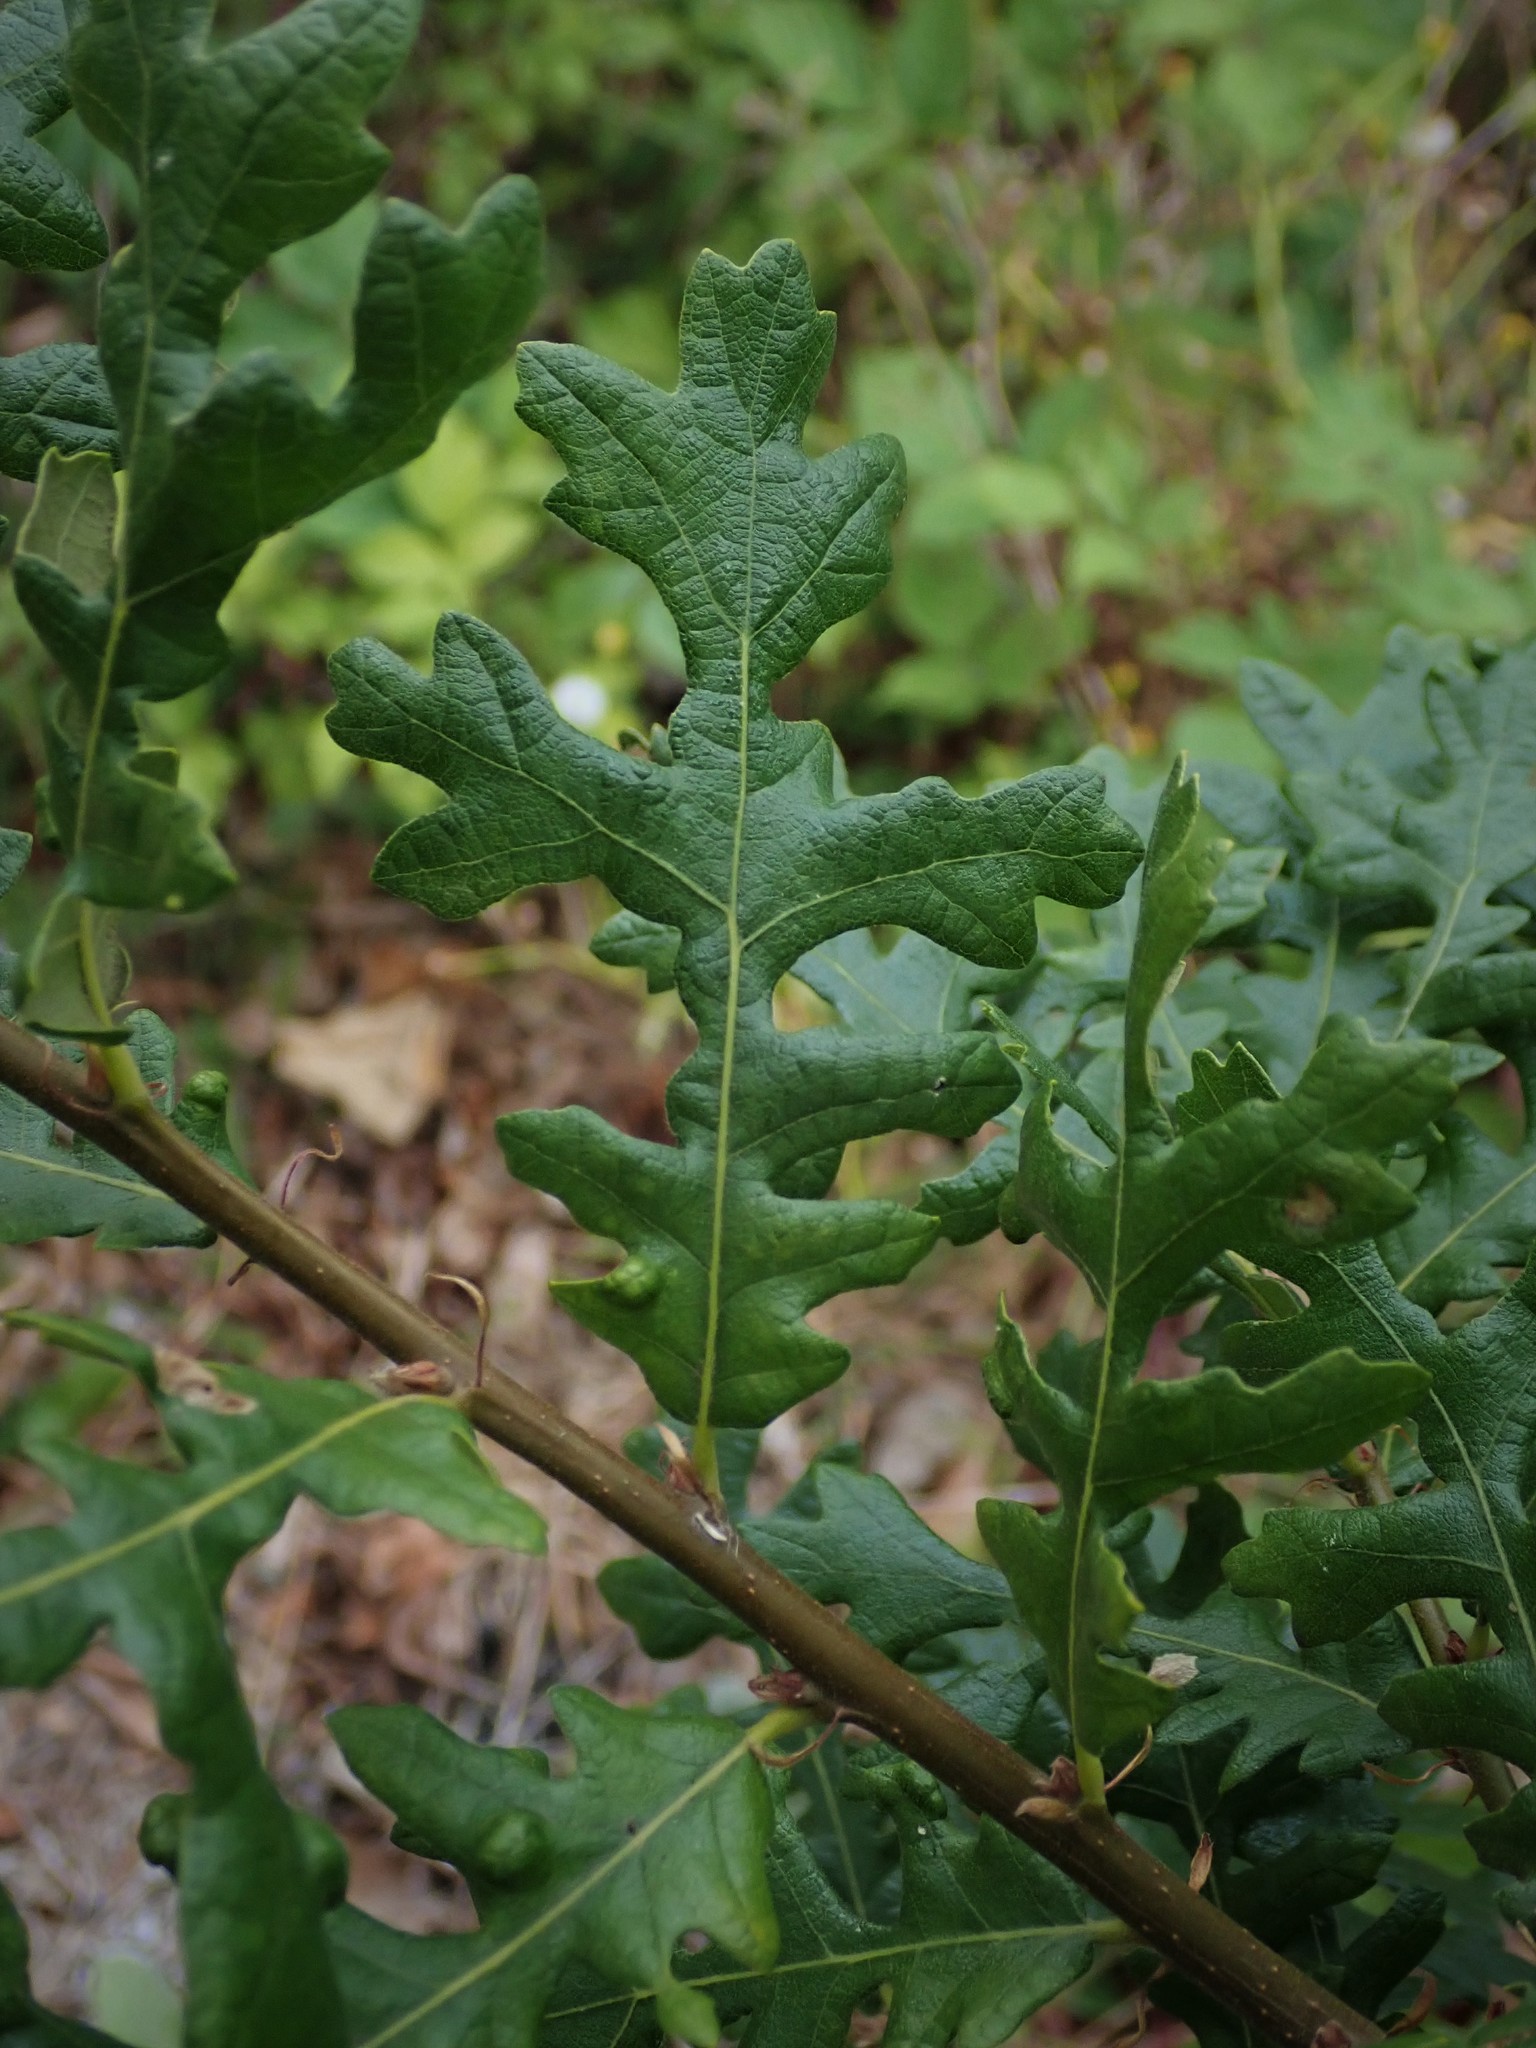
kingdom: Plantae
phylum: Tracheophyta
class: Magnoliopsida
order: Fagales
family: Fagaceae
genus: Quercus
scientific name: Quercus cerris
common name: Turkey oak
